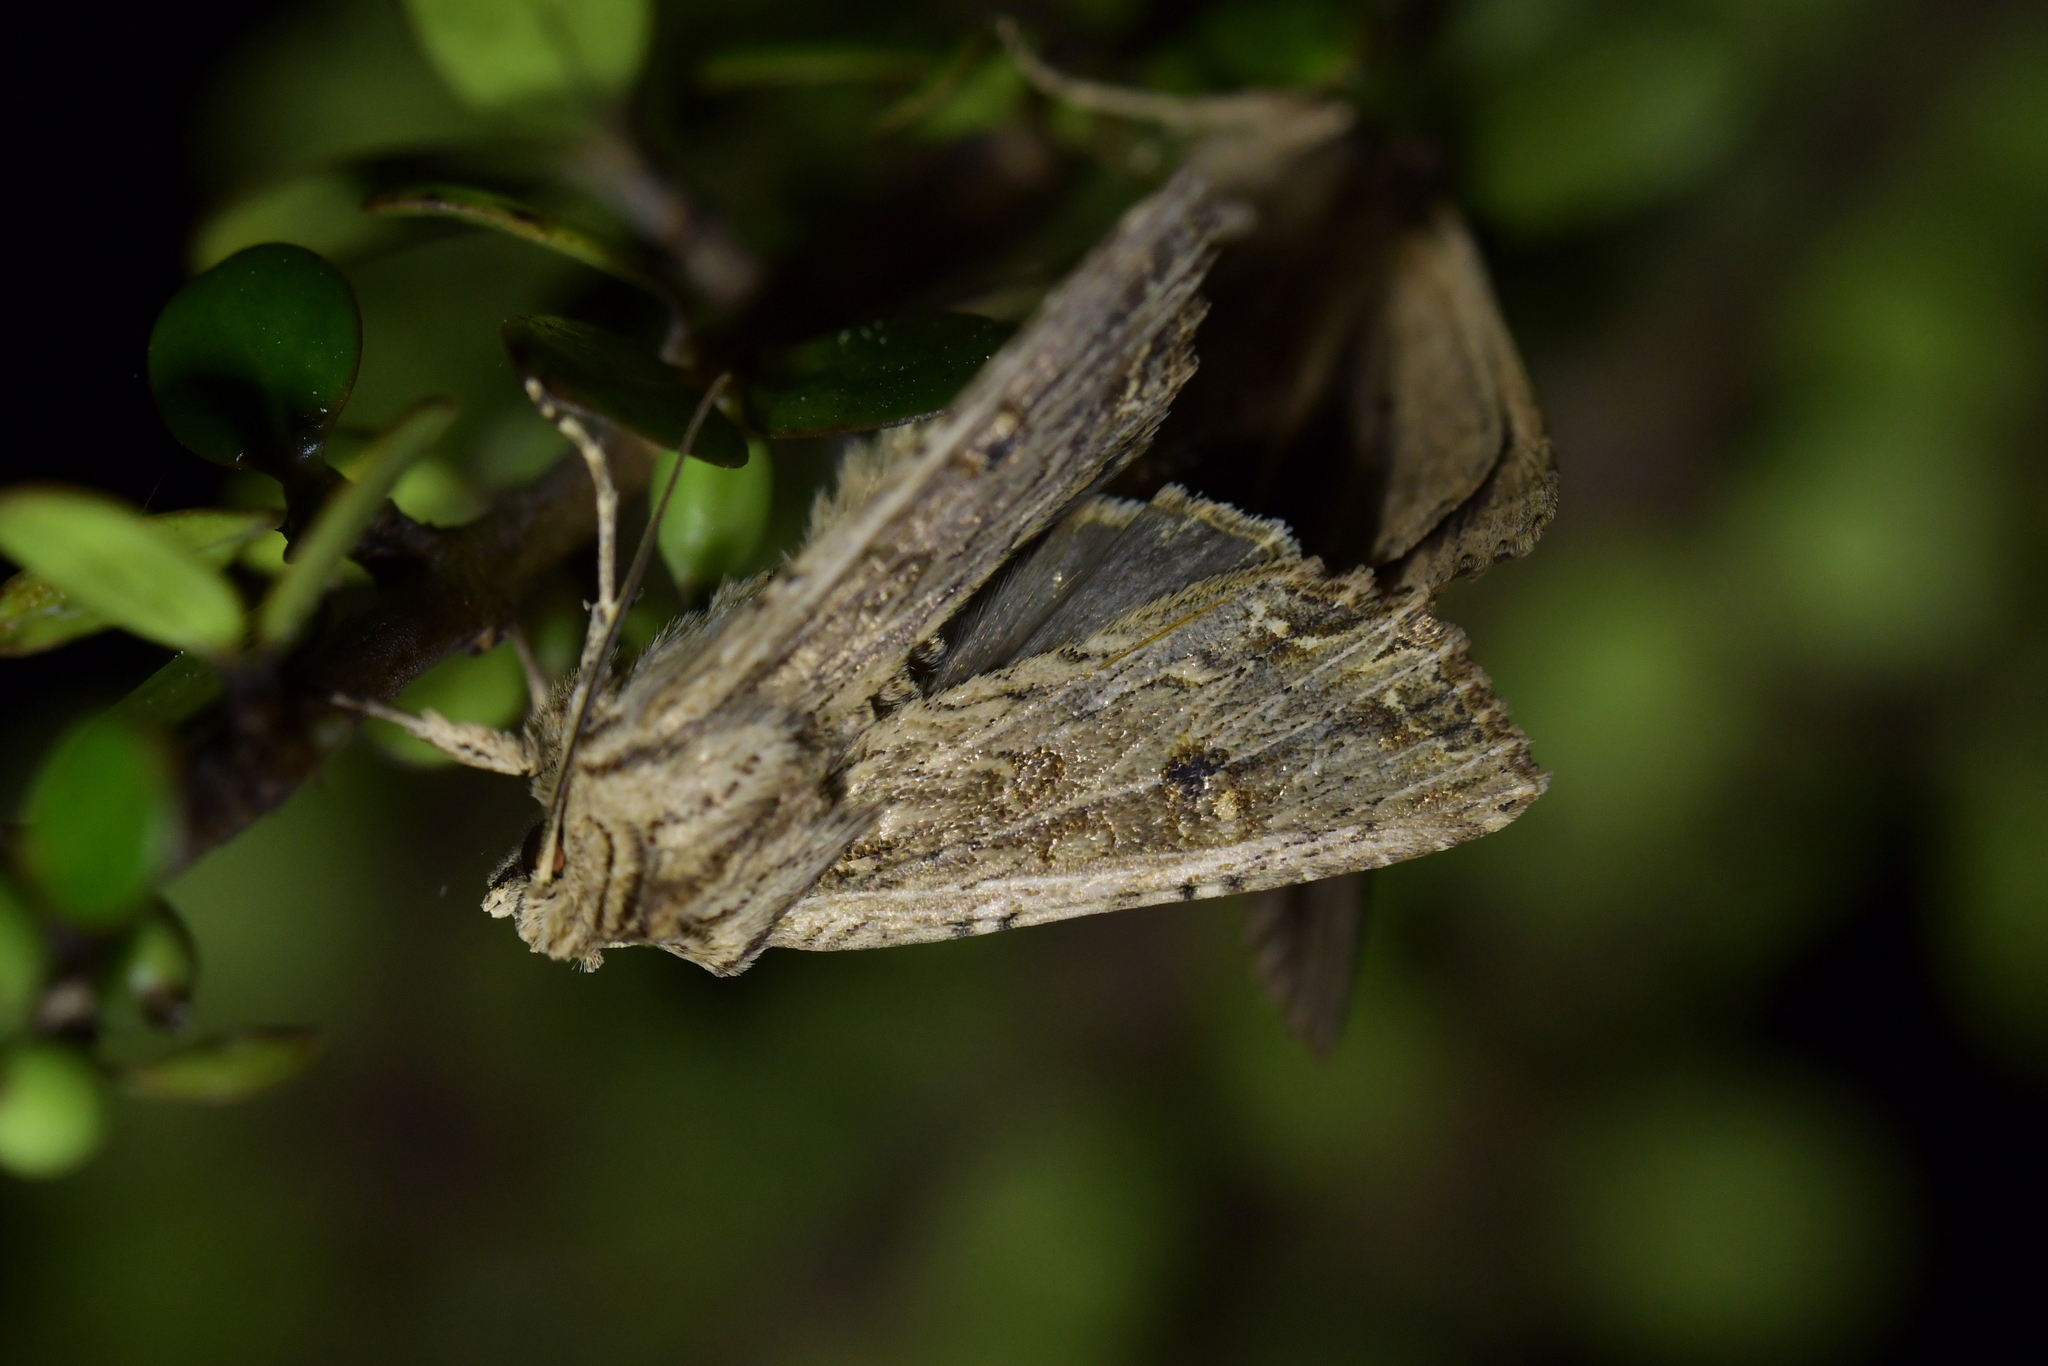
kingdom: Animalia
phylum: Arthropoda
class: Insecta
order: Lepidoptera
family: Noctuidae
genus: Ichneutica
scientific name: Ichneutica lignana
